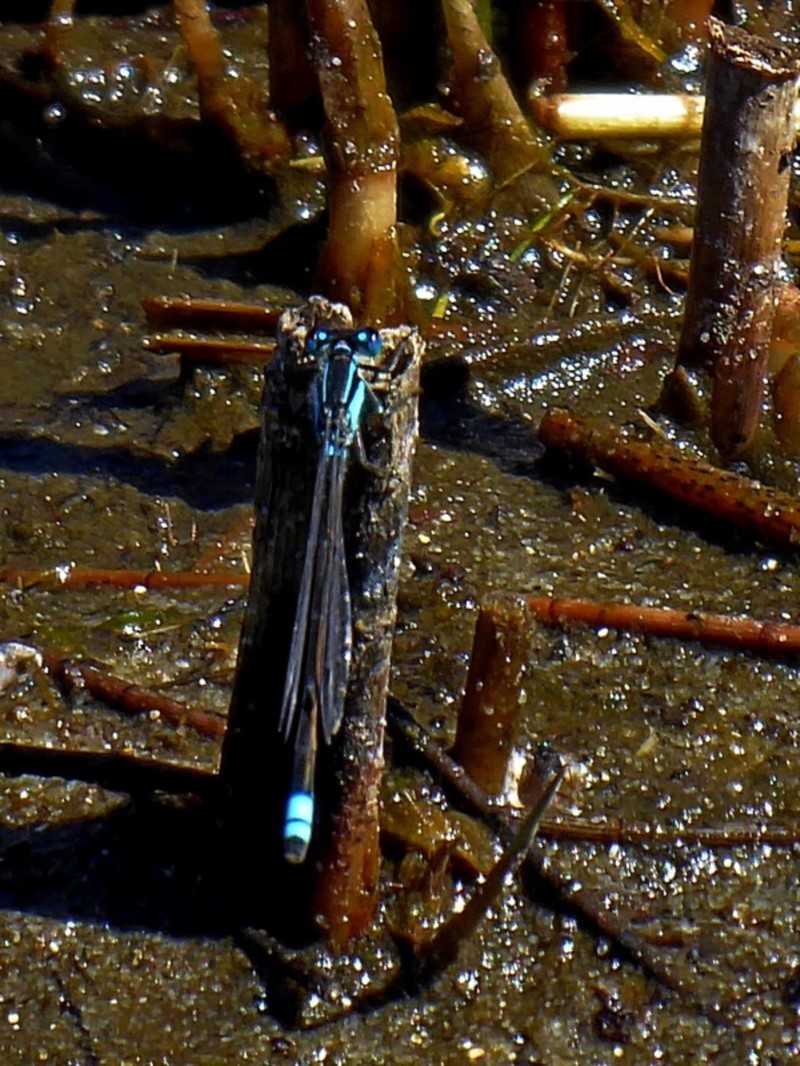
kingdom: Animalia
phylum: Arthropoda
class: Insecta
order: Odonata
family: Coenagrionidae
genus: Ischnura
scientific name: Ischnura heterosticta
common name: Common bluetail
